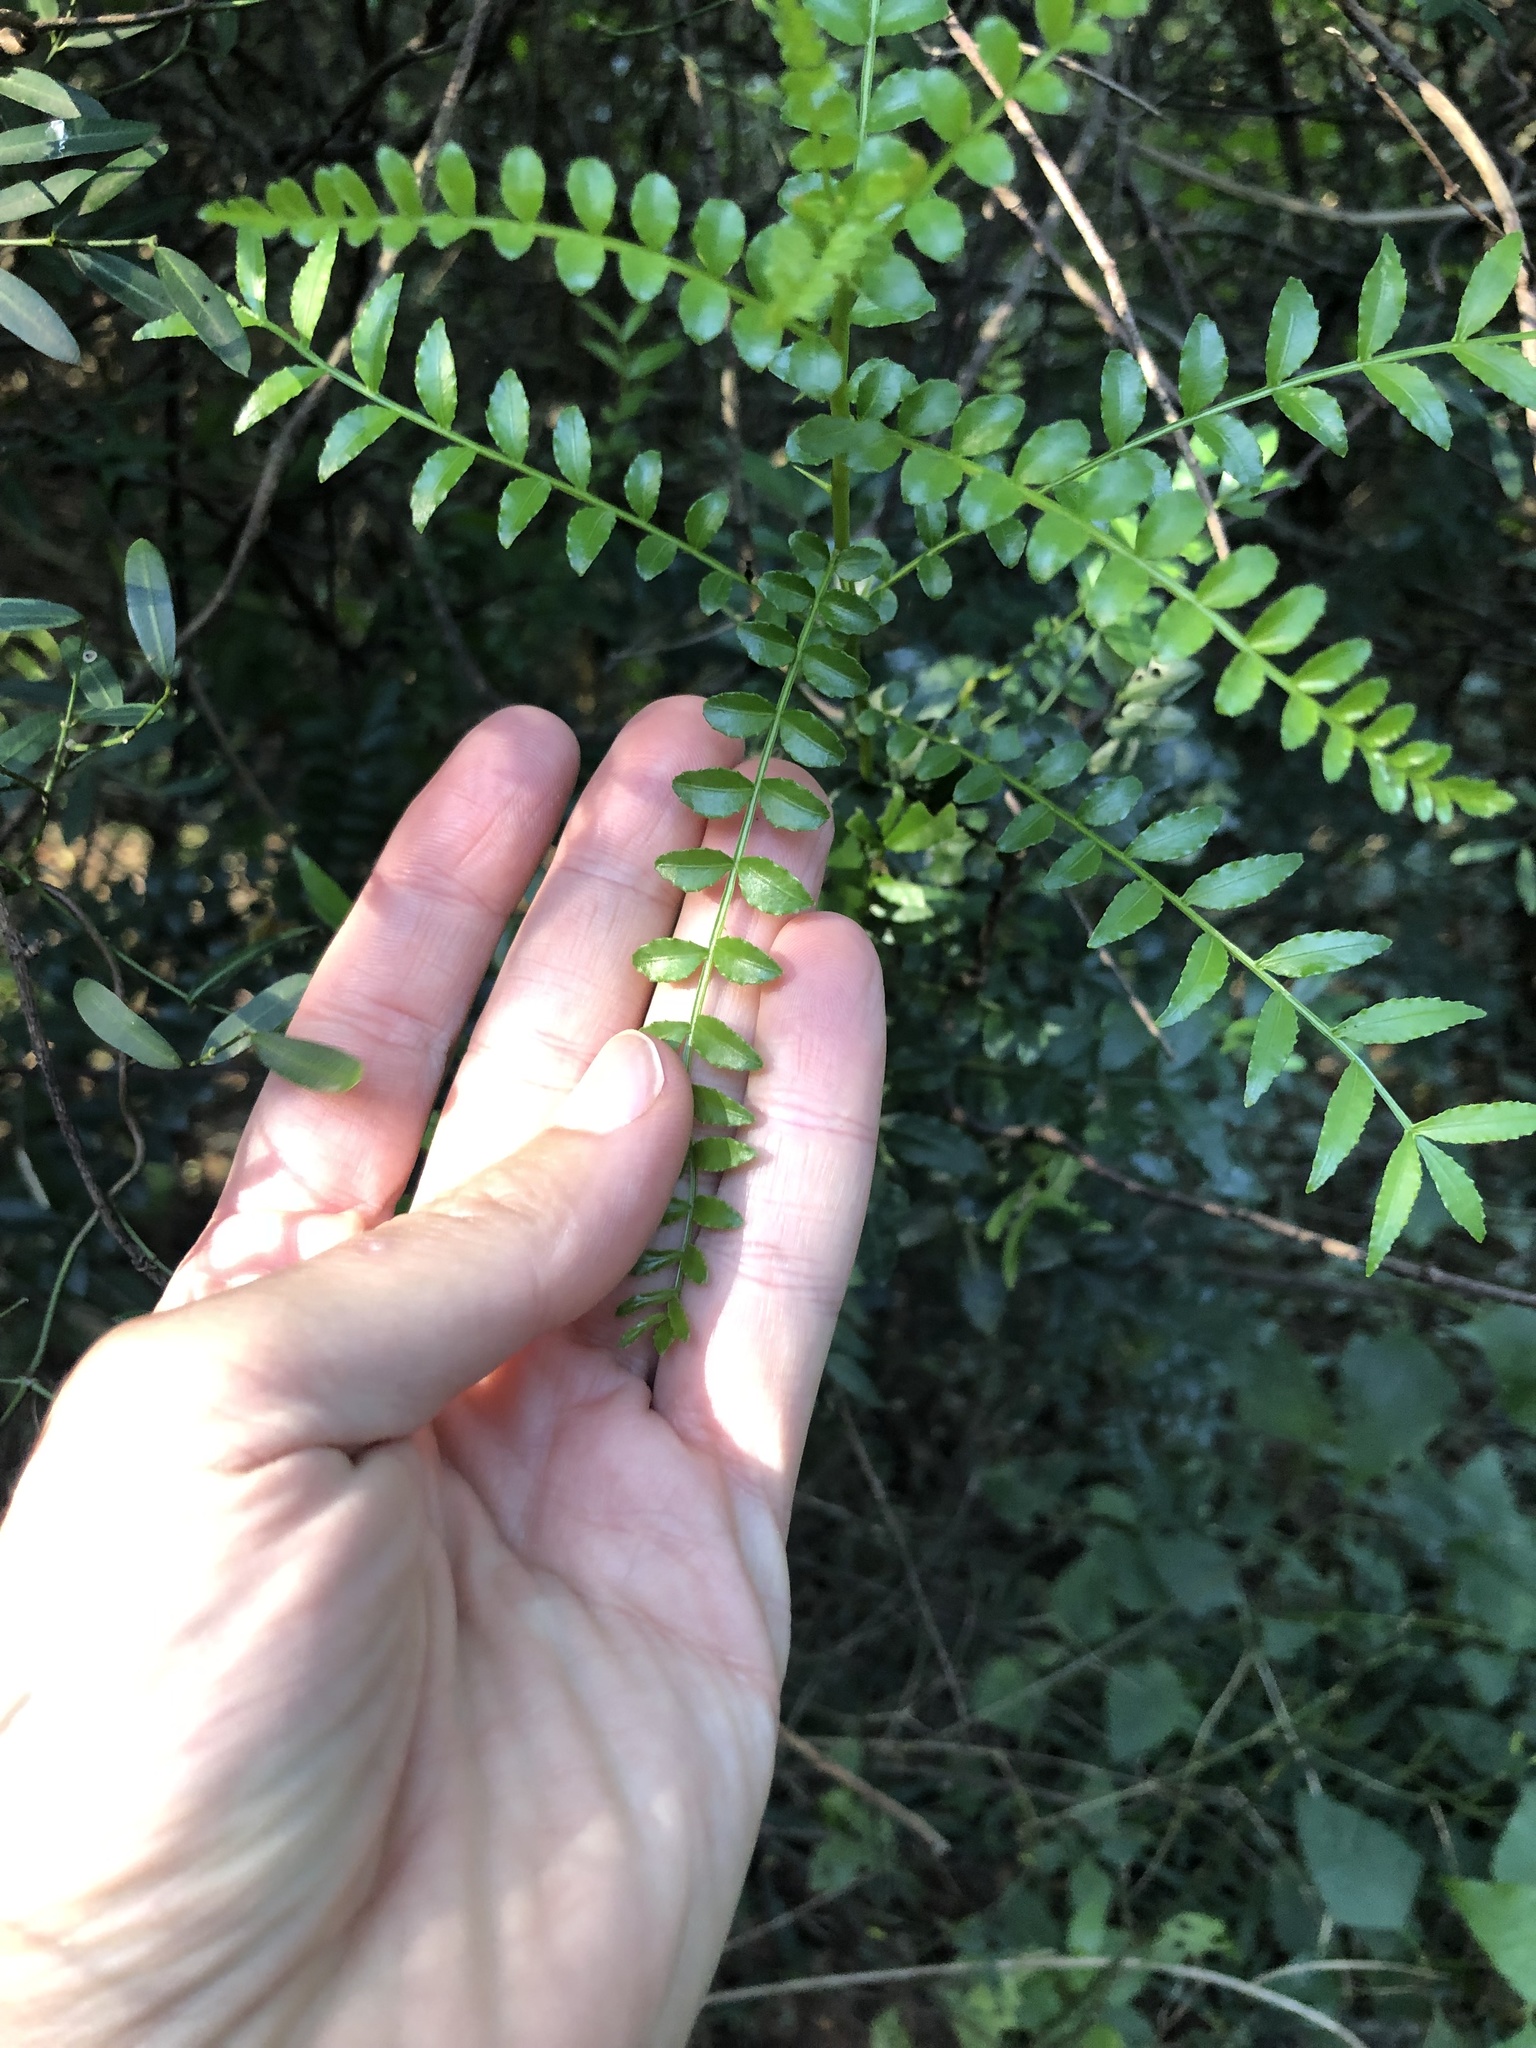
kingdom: Plantae
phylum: Tracheophyta
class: Magnoliopsida
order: Sapindales
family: Rutaceae
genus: Zanthoxylum
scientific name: Zanthoxylum capense
